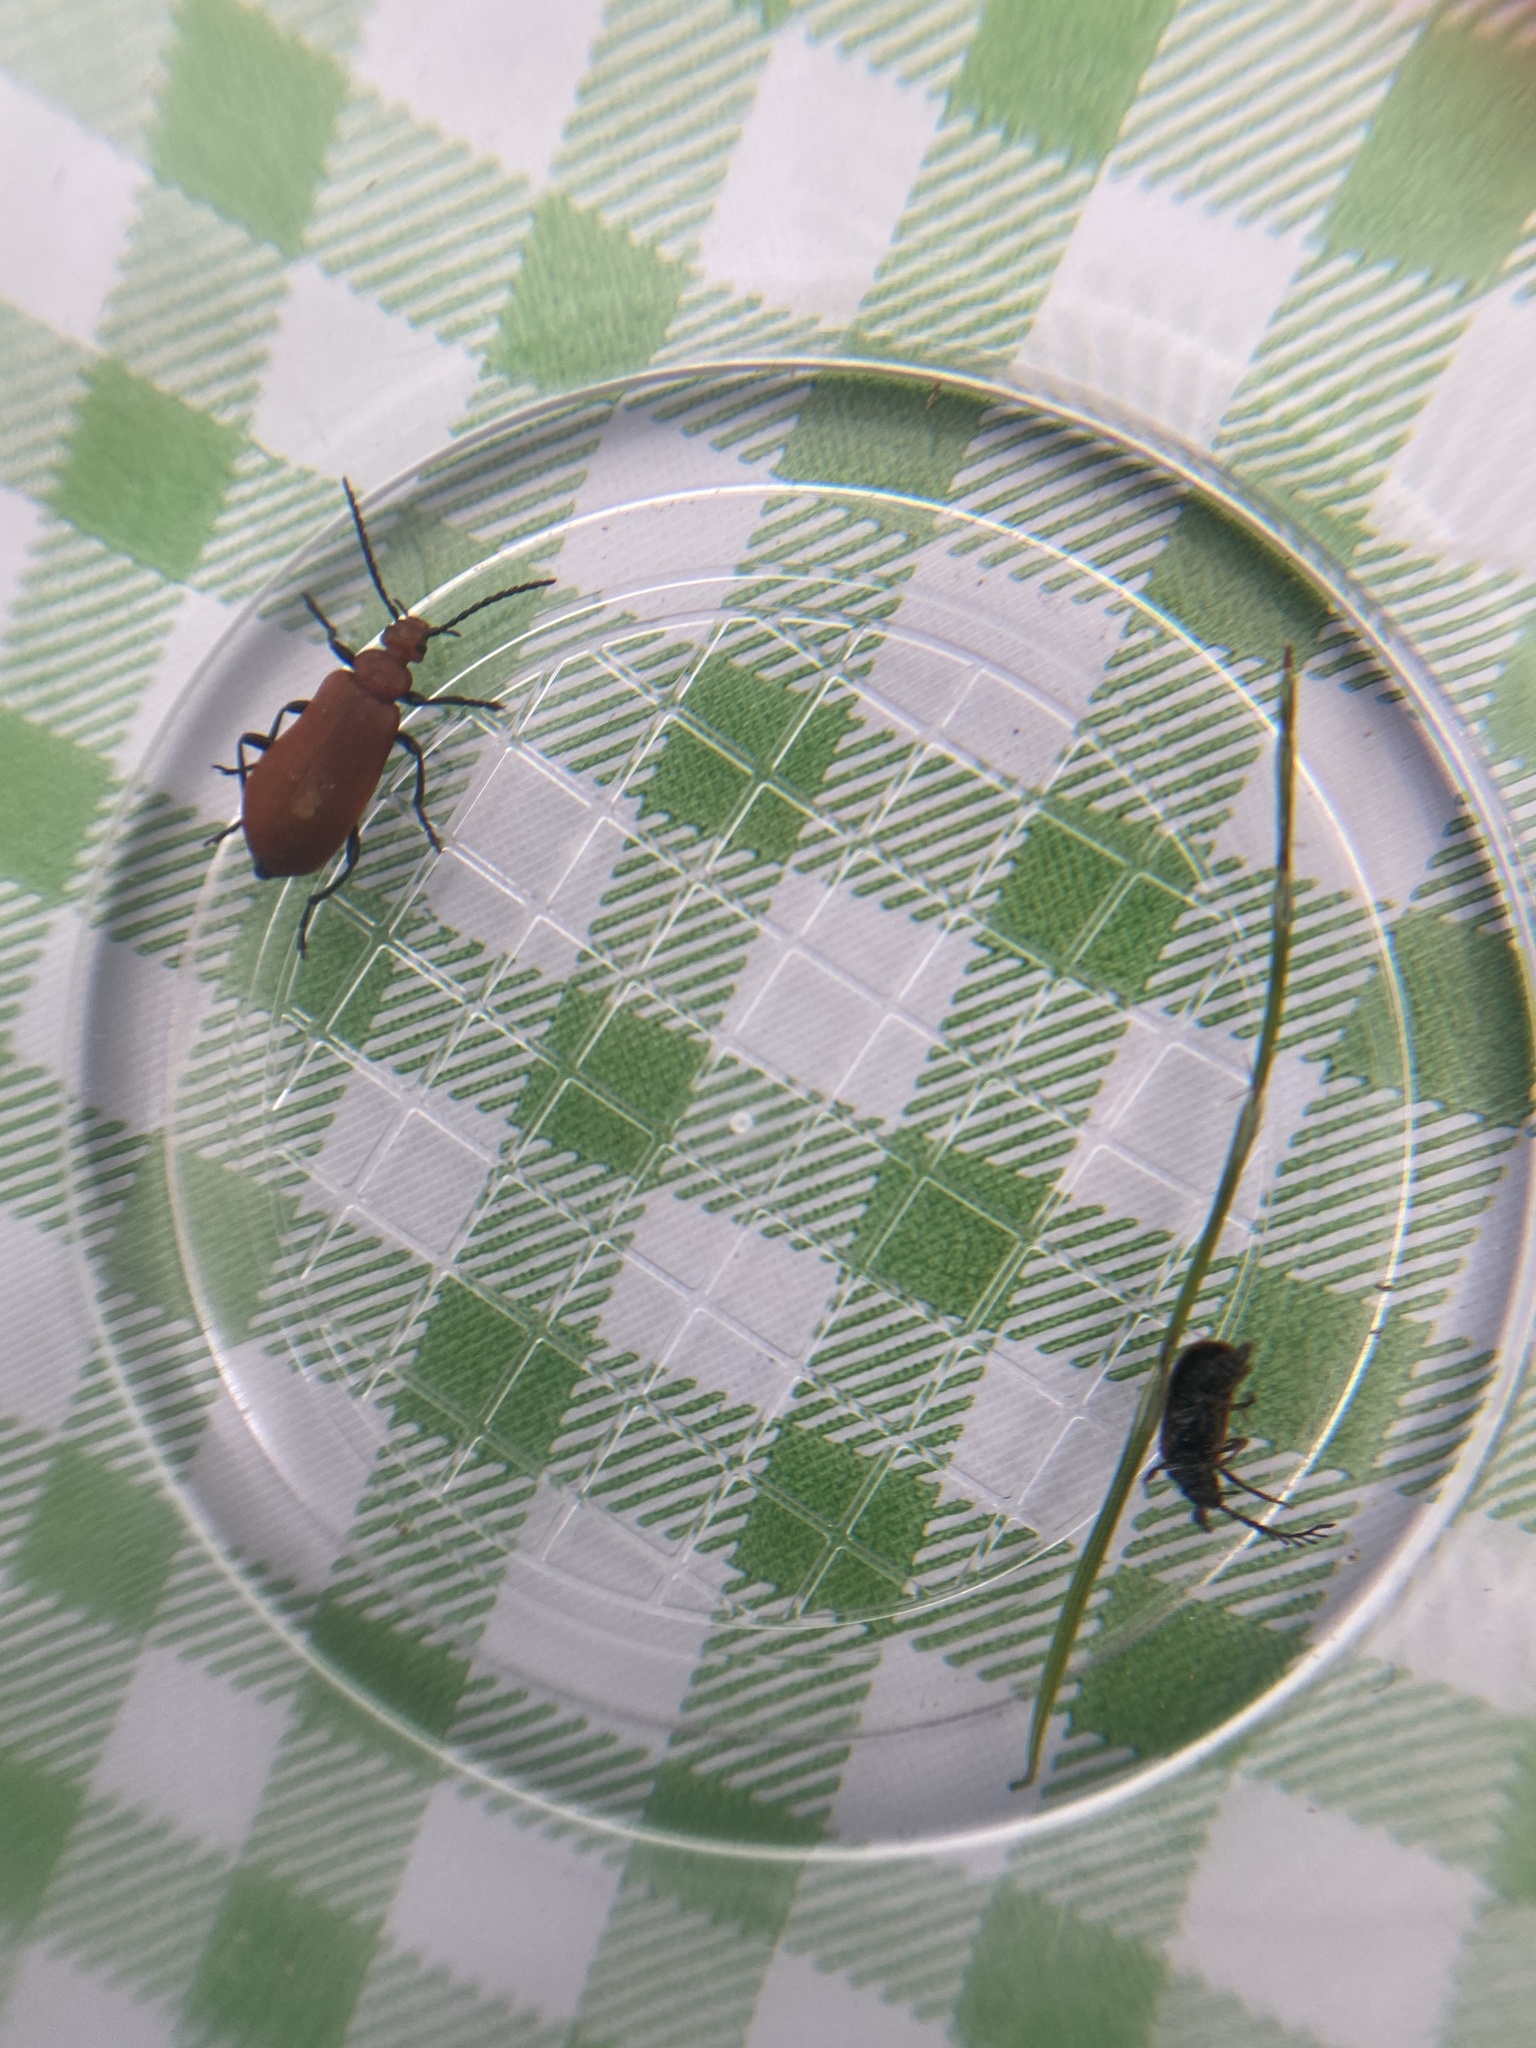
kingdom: Animalia
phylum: Arthropoda
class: Insecta
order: Coleoptera
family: Pyrochroidae
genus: Pyrochroa
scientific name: Pyrochroa serraticornis
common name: Red-headed cardinal beetle
